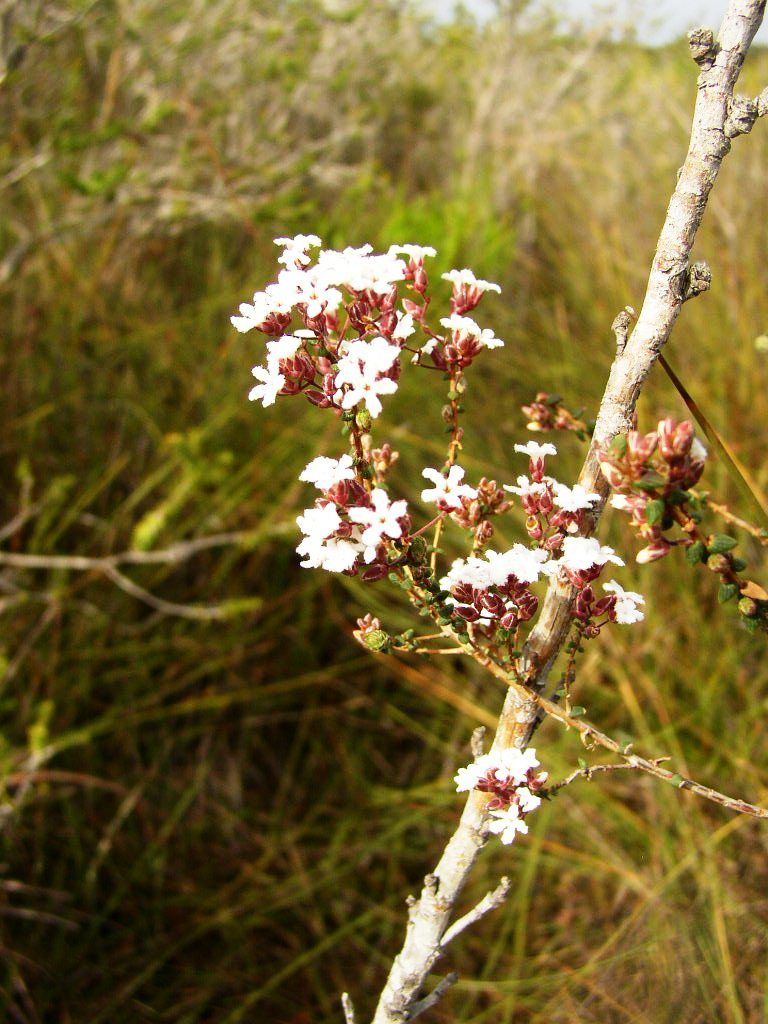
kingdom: Plantae
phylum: Tracheophyta
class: Magnoliopsida
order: Ericales
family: Ericaceae
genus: Leucopogon
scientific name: Leucopogon distans
